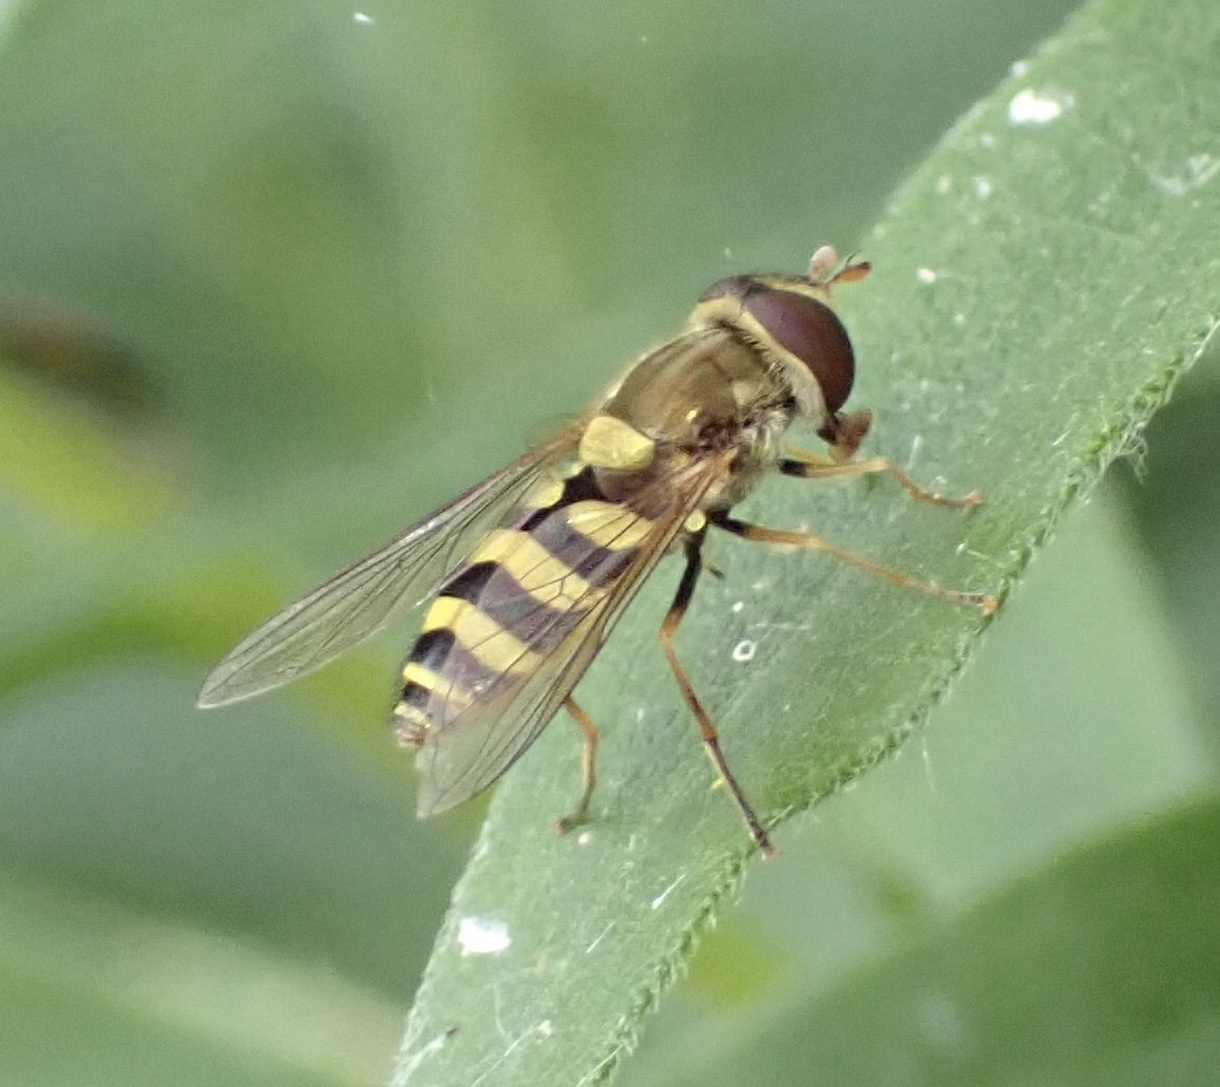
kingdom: Animalia
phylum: Arthropoda
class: Insecta
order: Diptera
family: Syrphidae
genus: Syrphus
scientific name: Syrphus
